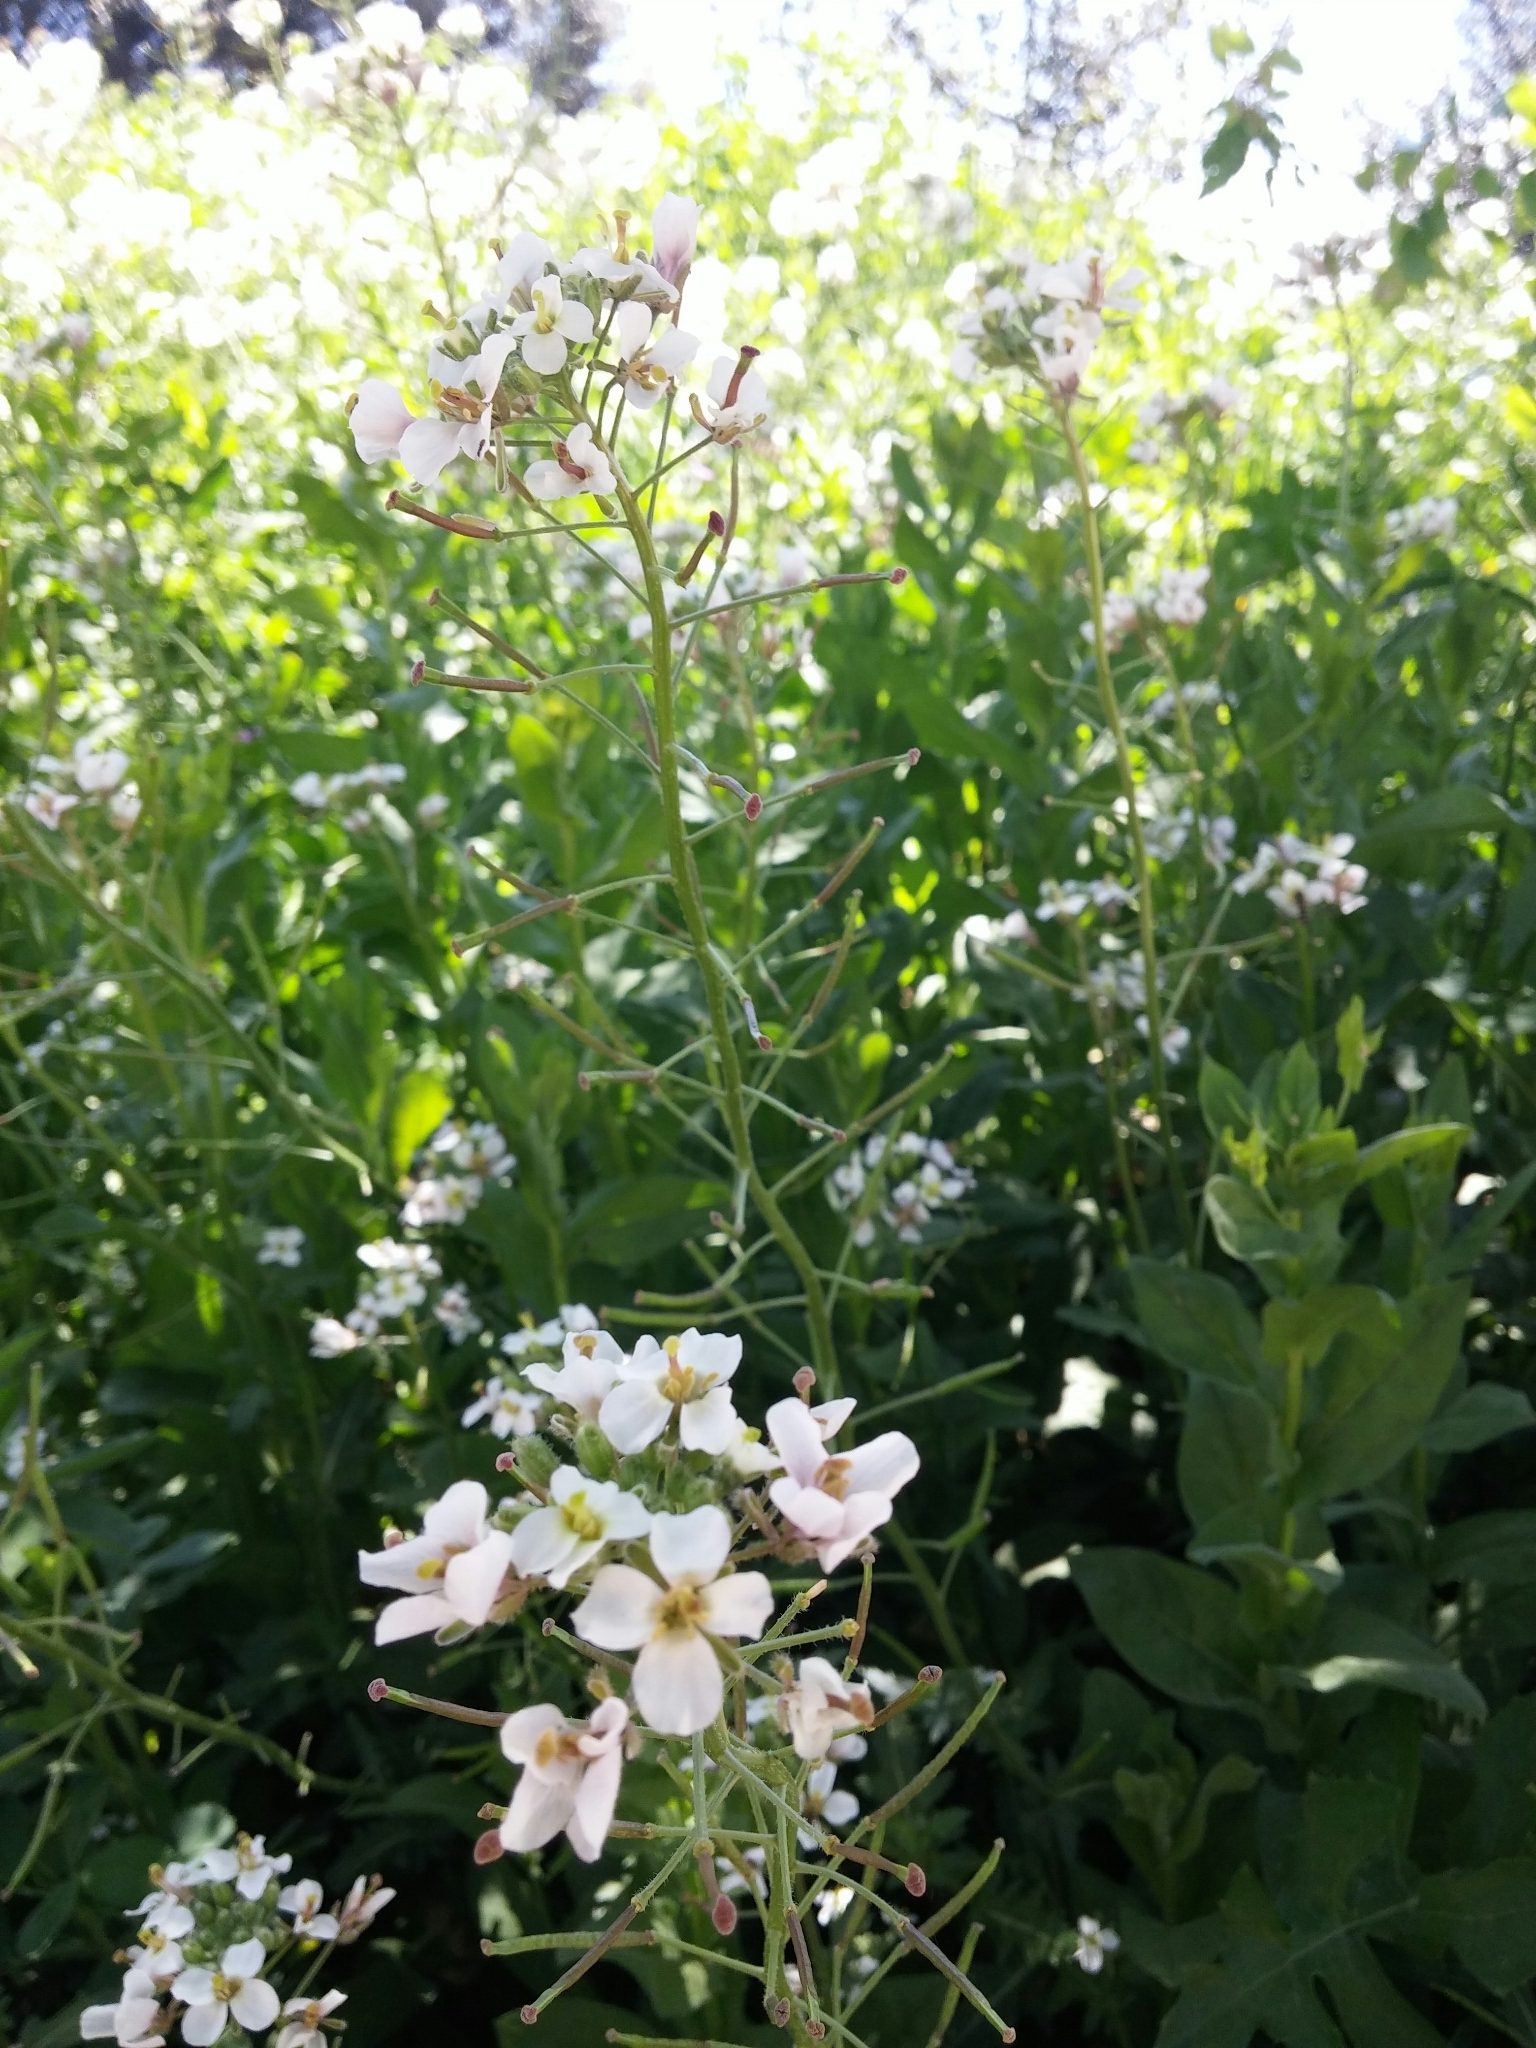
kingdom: Plantae
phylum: Tracheophyta
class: Magnoliopsida
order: Brassicales
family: Brassicaceae
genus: Diplotaxis
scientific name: Diplotaxis erucoides
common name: White rocket
